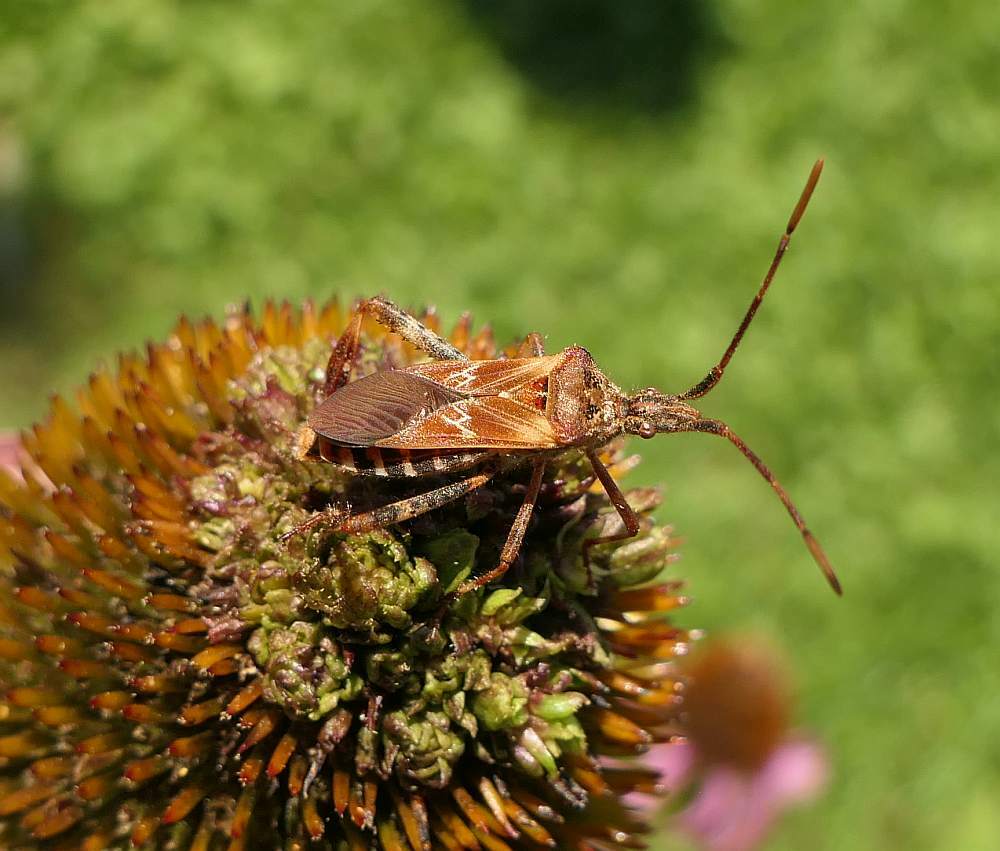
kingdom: Animalia
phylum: Arthropoda
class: Insecta
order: Hemiptera
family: Coreidae
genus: Leptoglossus
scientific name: Leptoglossus occidentalis
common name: Western conifer-seed bug
